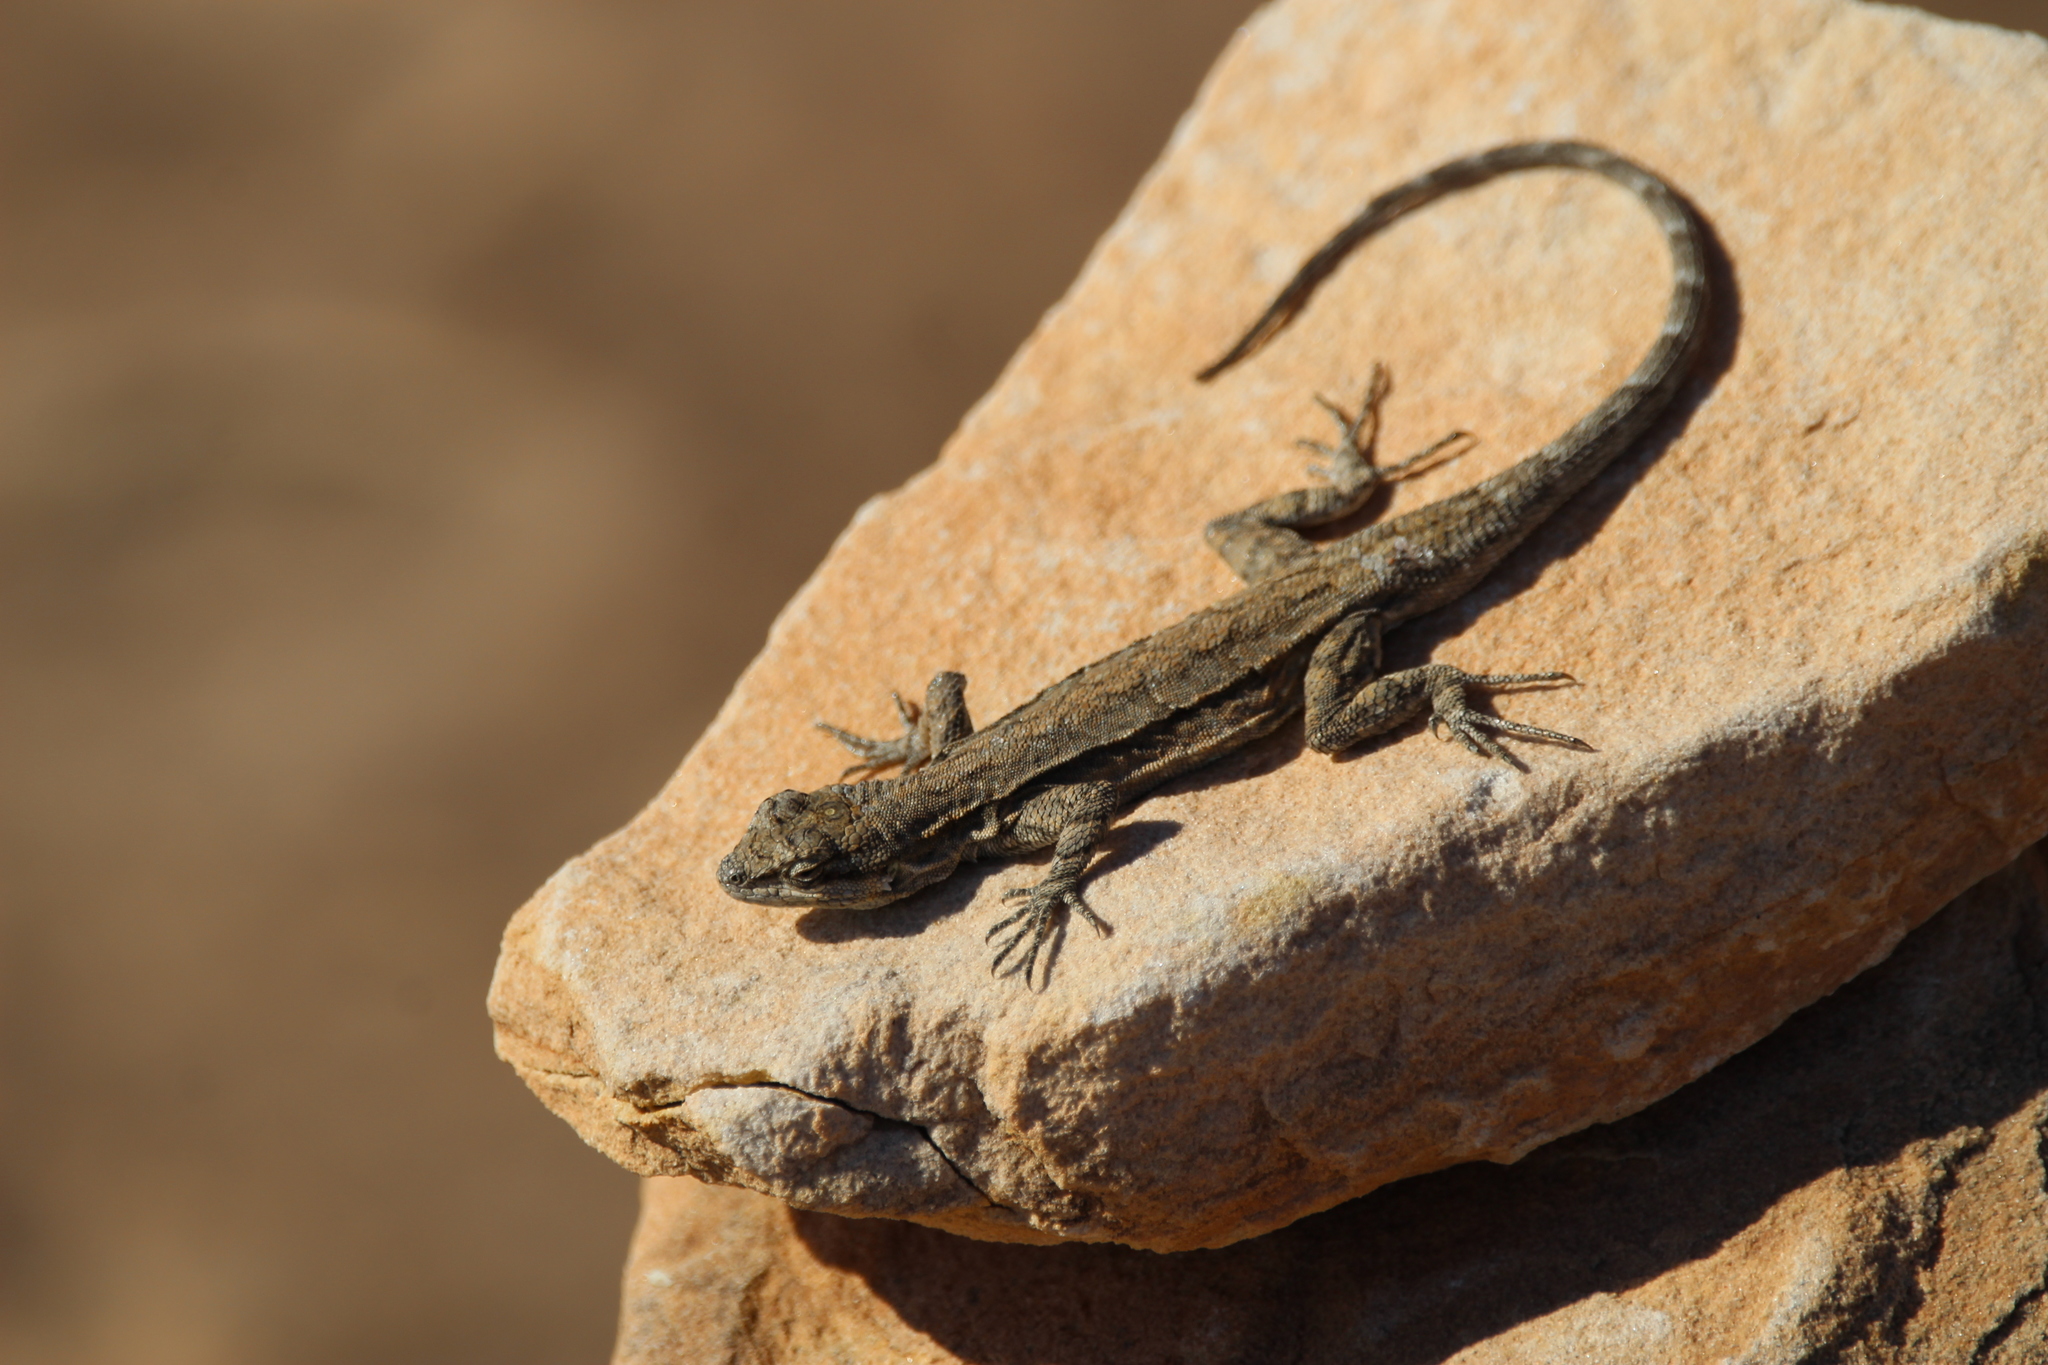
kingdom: Animalia
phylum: Chordata
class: Squamata
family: Phrynosomatidae
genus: Urosaurus
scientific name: Urosaurus ornatus
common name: Ornate tree lizard
